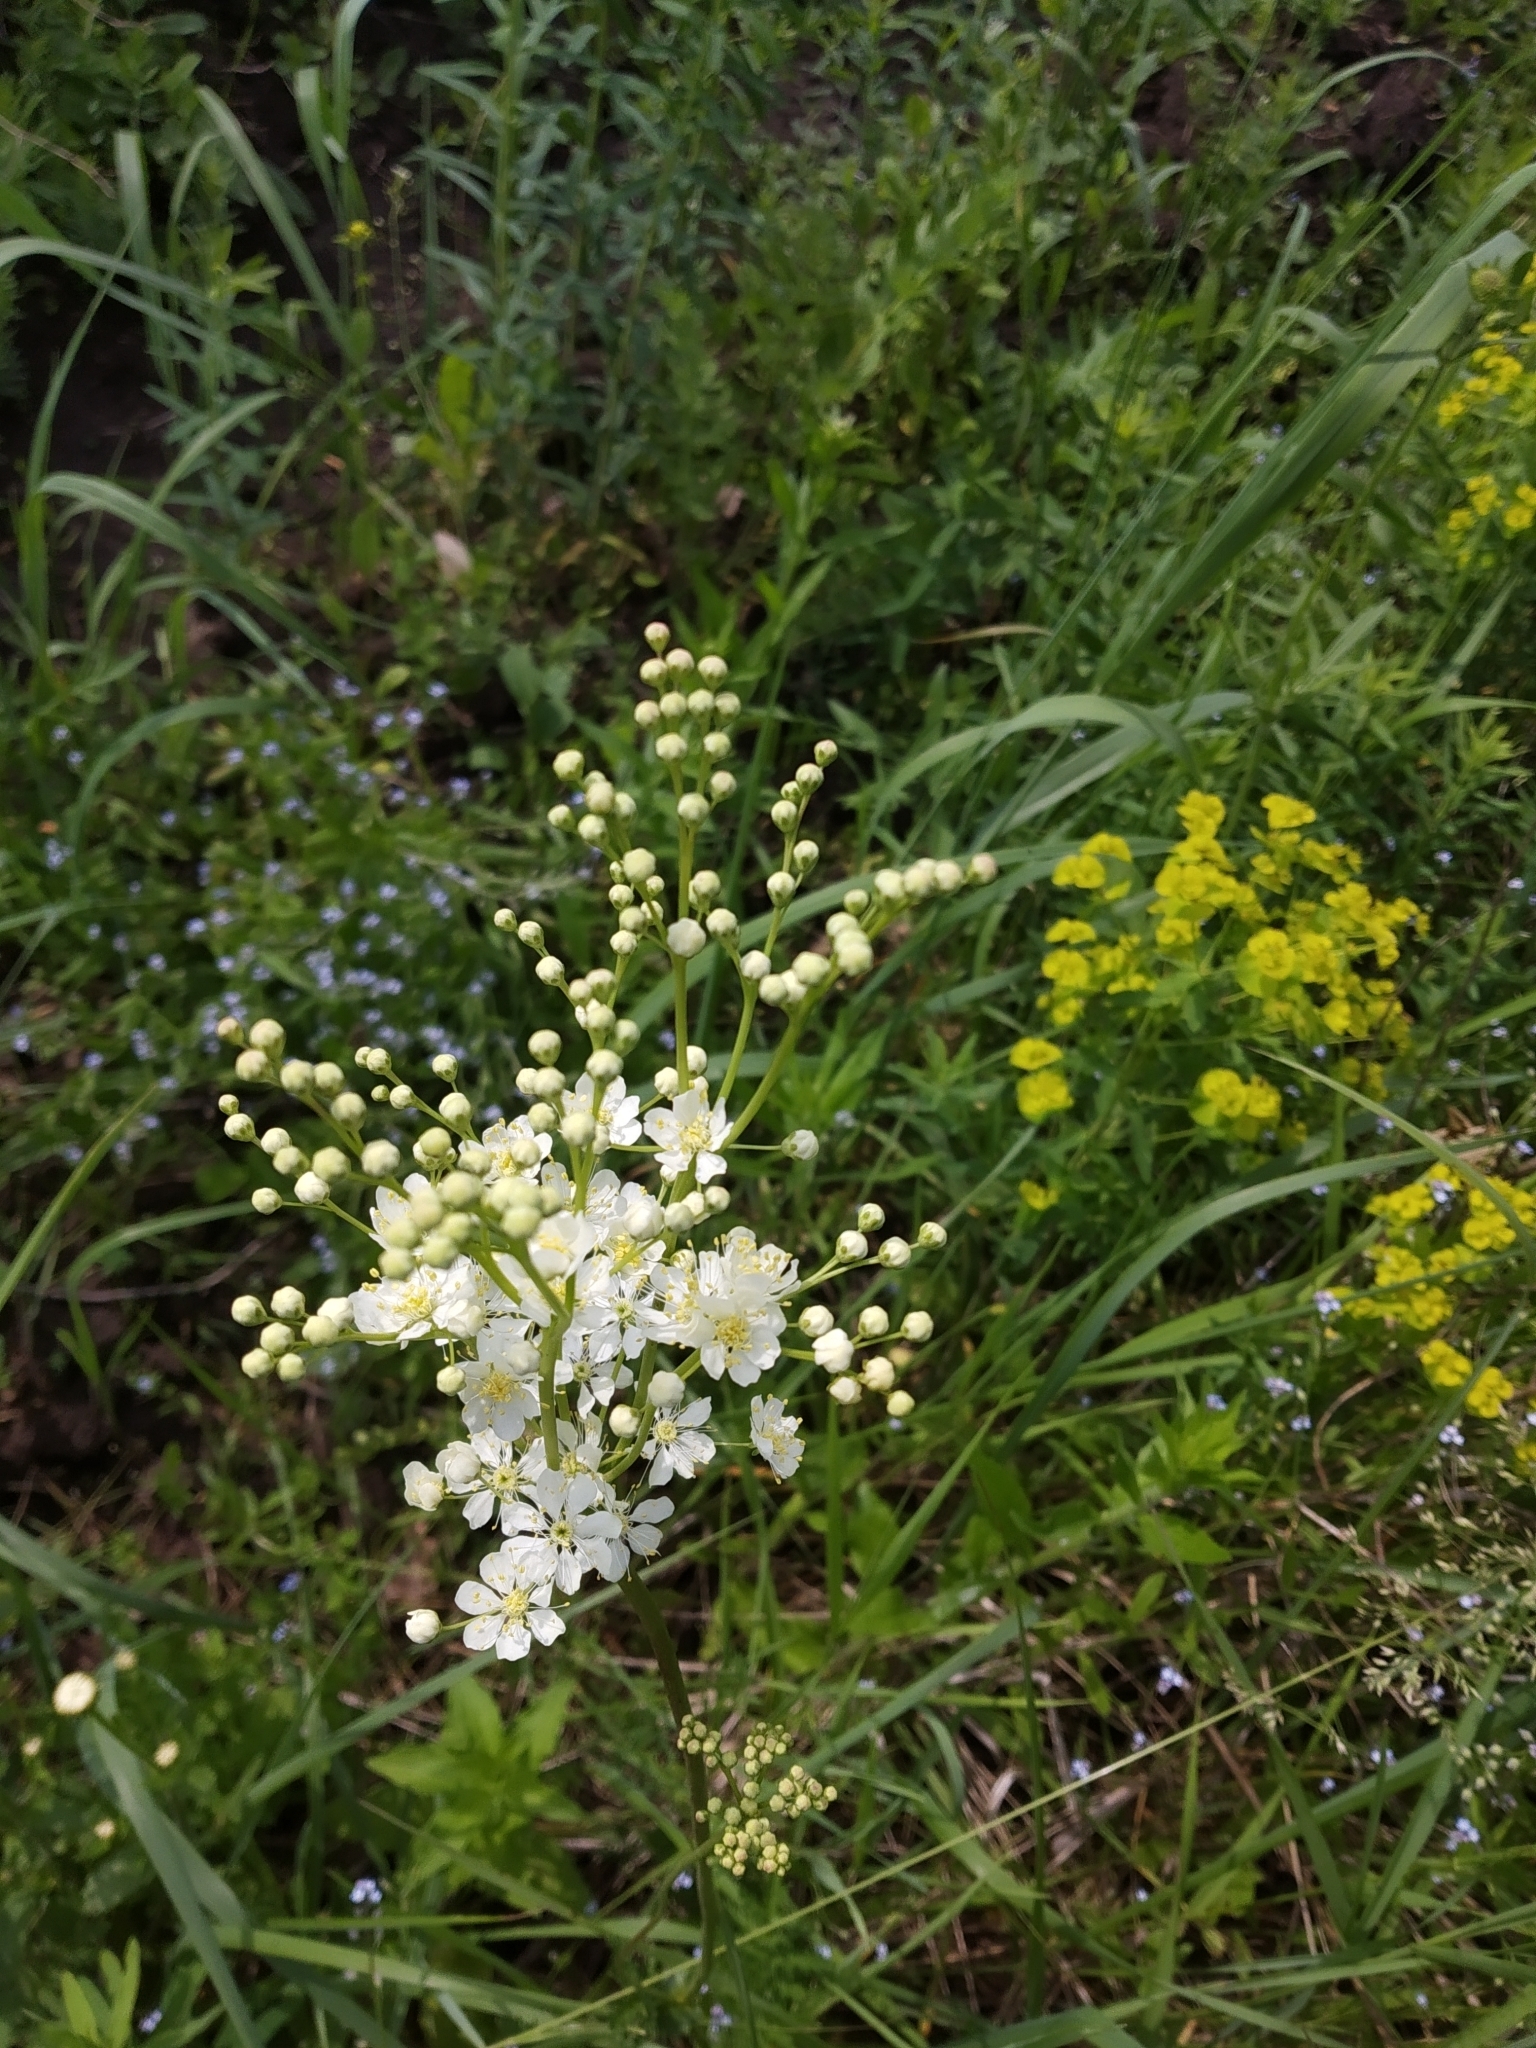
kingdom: Plantae
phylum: Tracheophyta
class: Magnoliopsida
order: Rosales
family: Rosaceae
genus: Filipendula
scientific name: Filipendula ulmaria
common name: Meadowsweet
